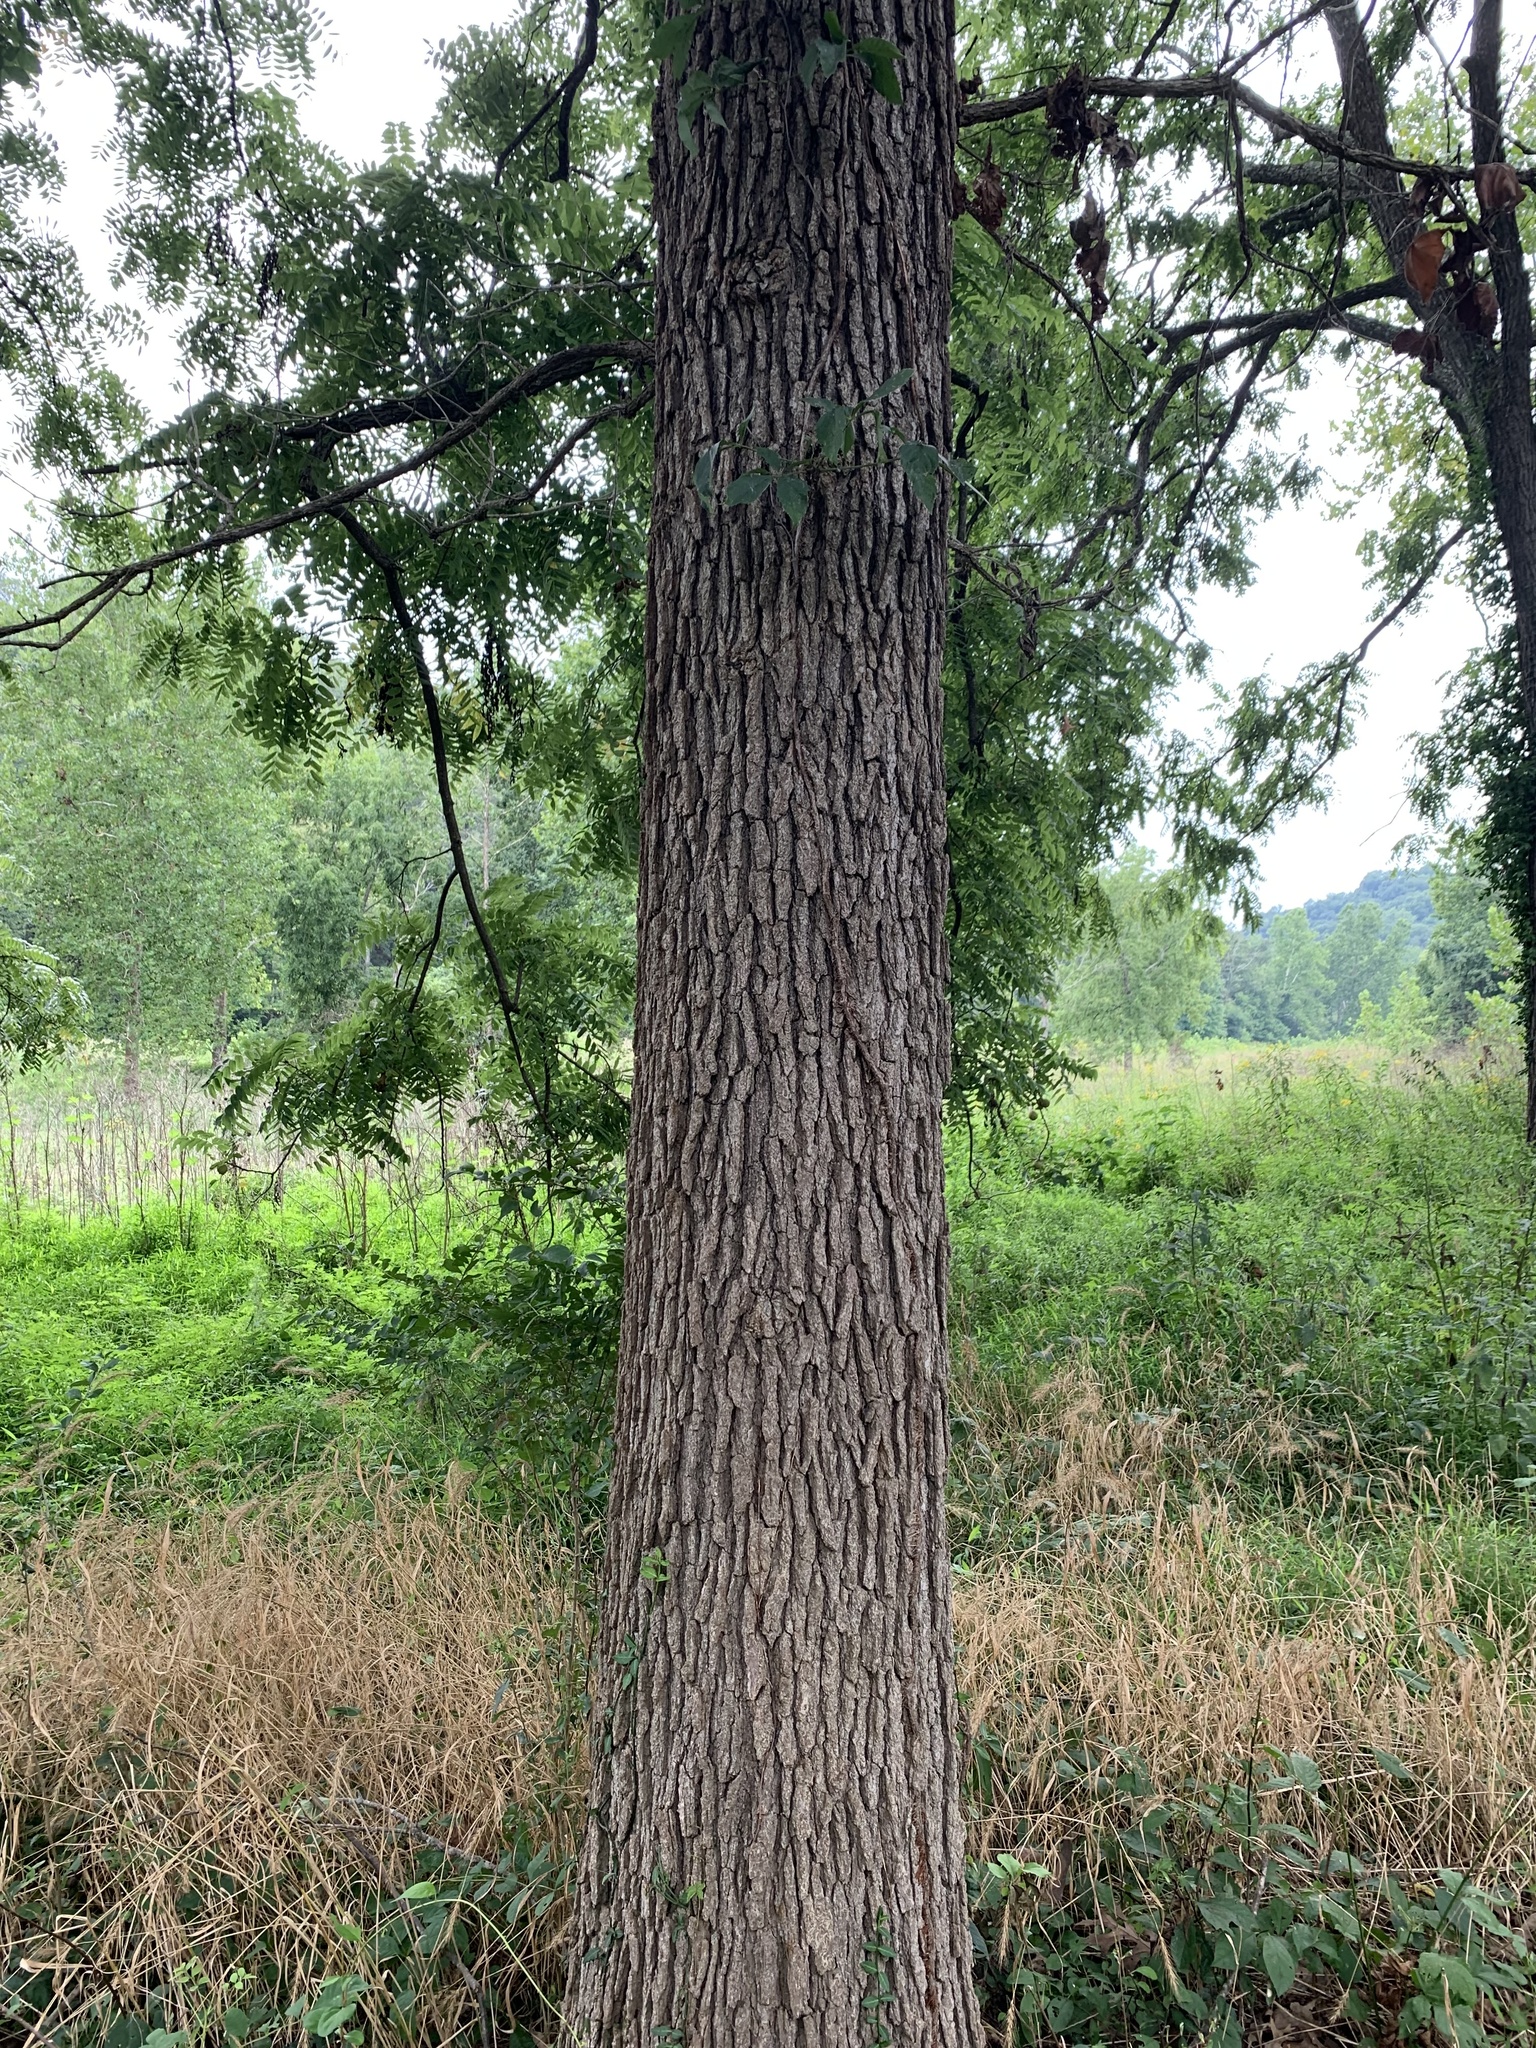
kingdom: Plantae
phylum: Tracheophyta
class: Magnoliopsida
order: Fagales
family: Fagaceae
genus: Quercus
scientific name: Quercus macrocarpa
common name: Bur oak
